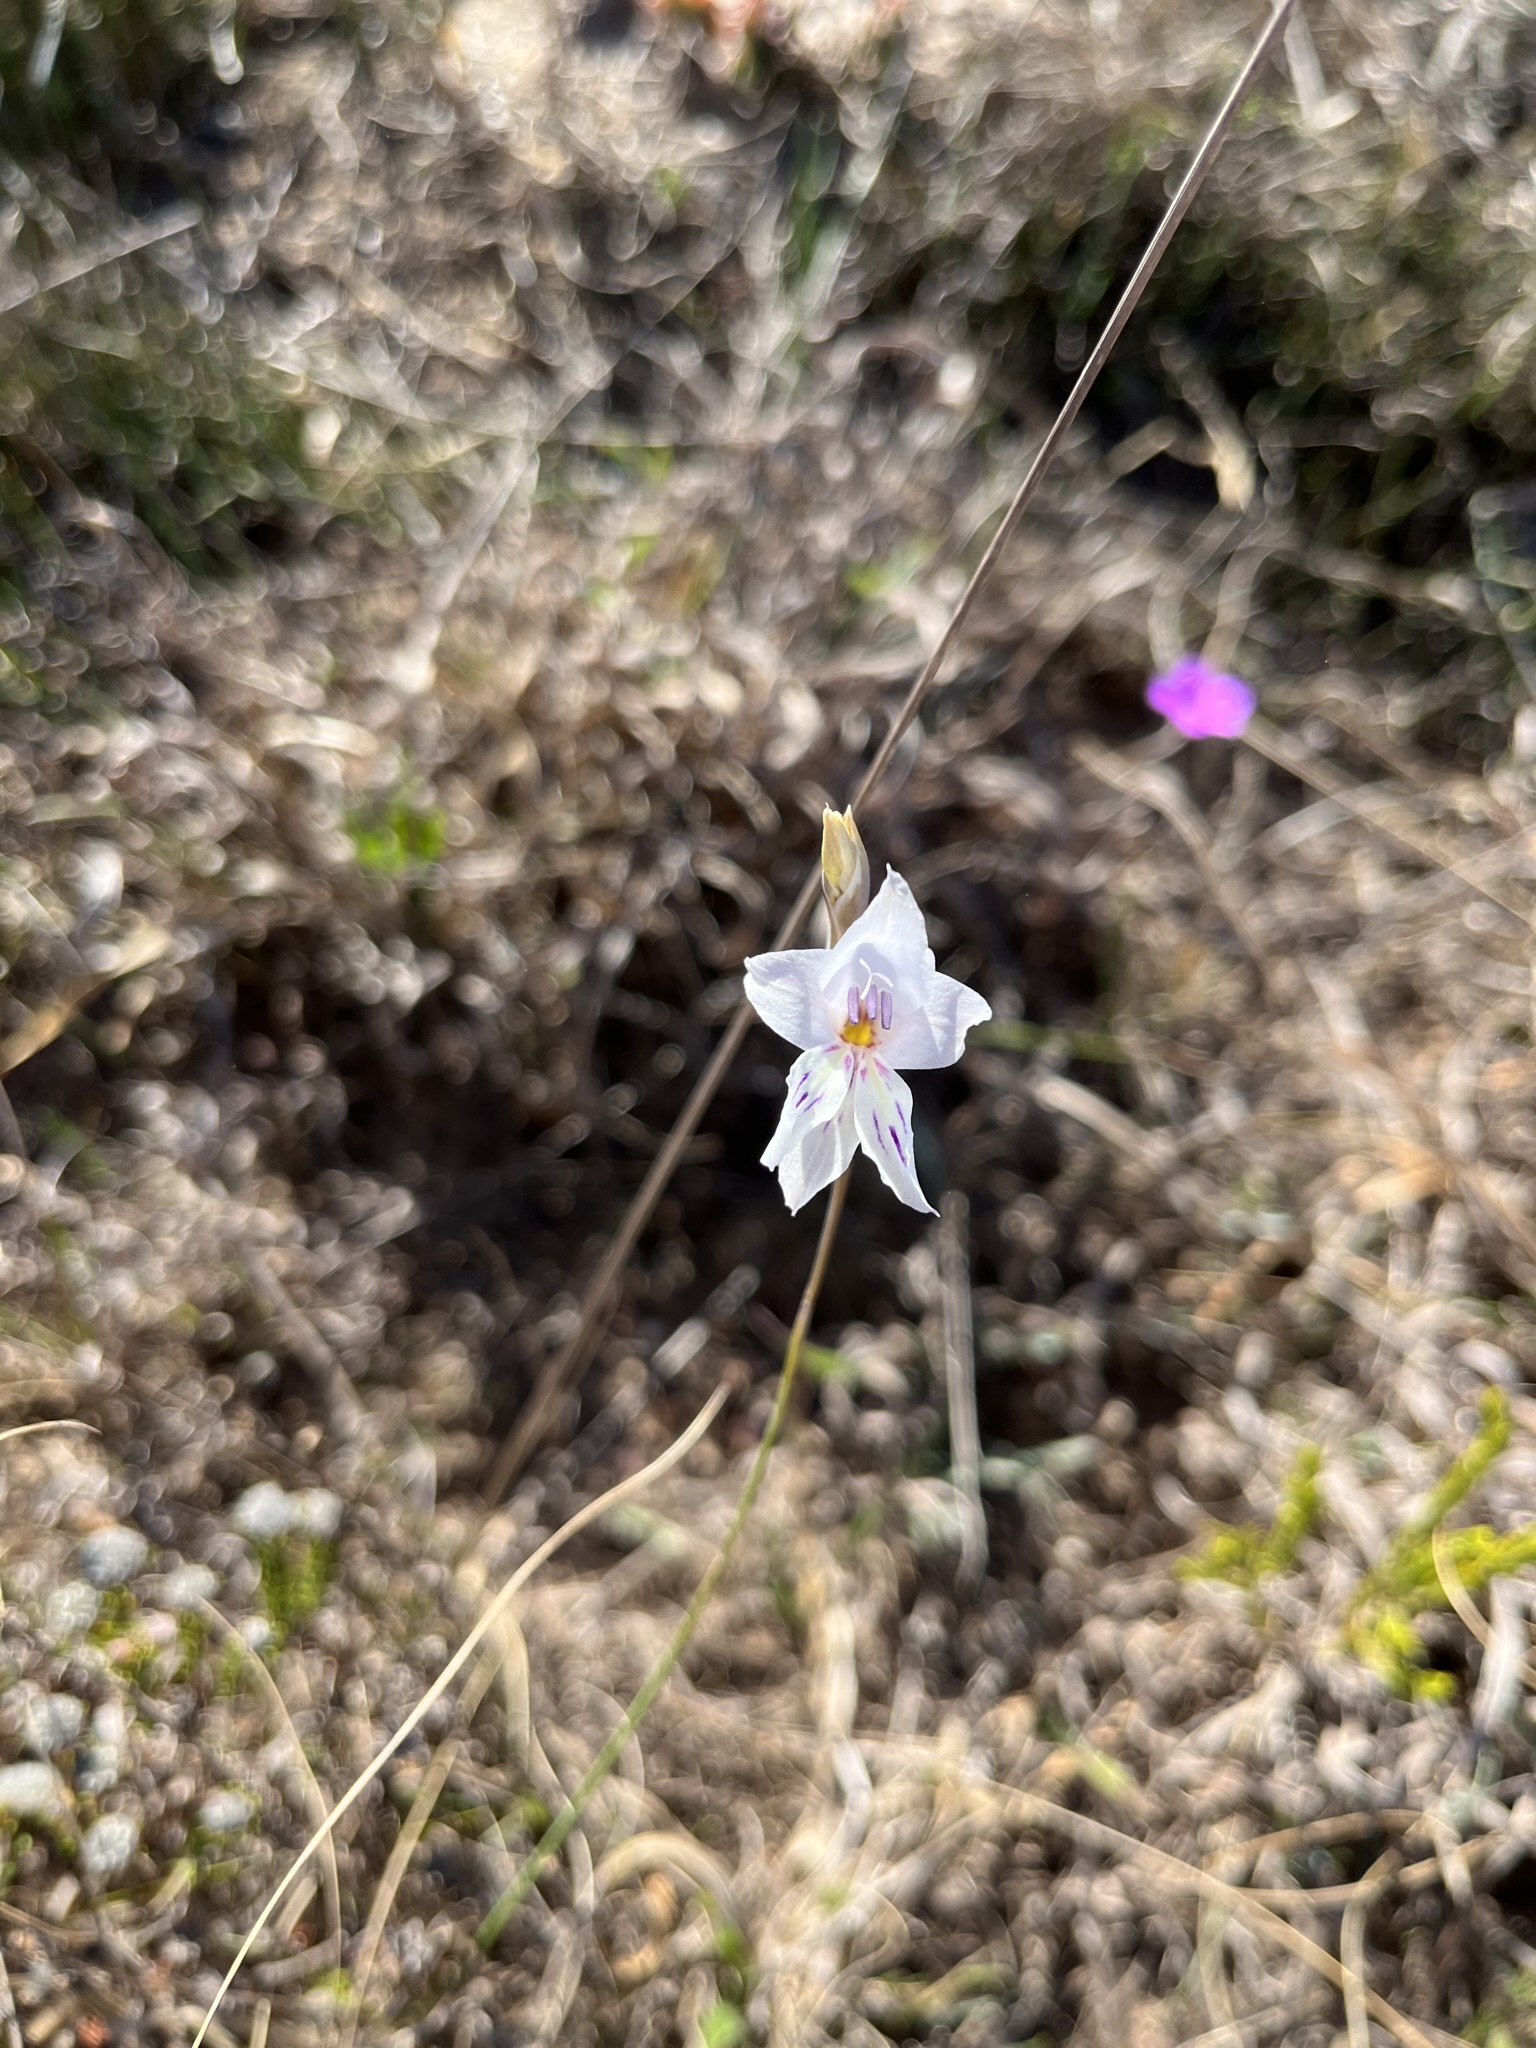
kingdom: Plantae
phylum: Tracheophyta
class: Liliopsida
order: Asparagales
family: Iridaceae
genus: Gladiolus
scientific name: Gladiolus vaginatus
